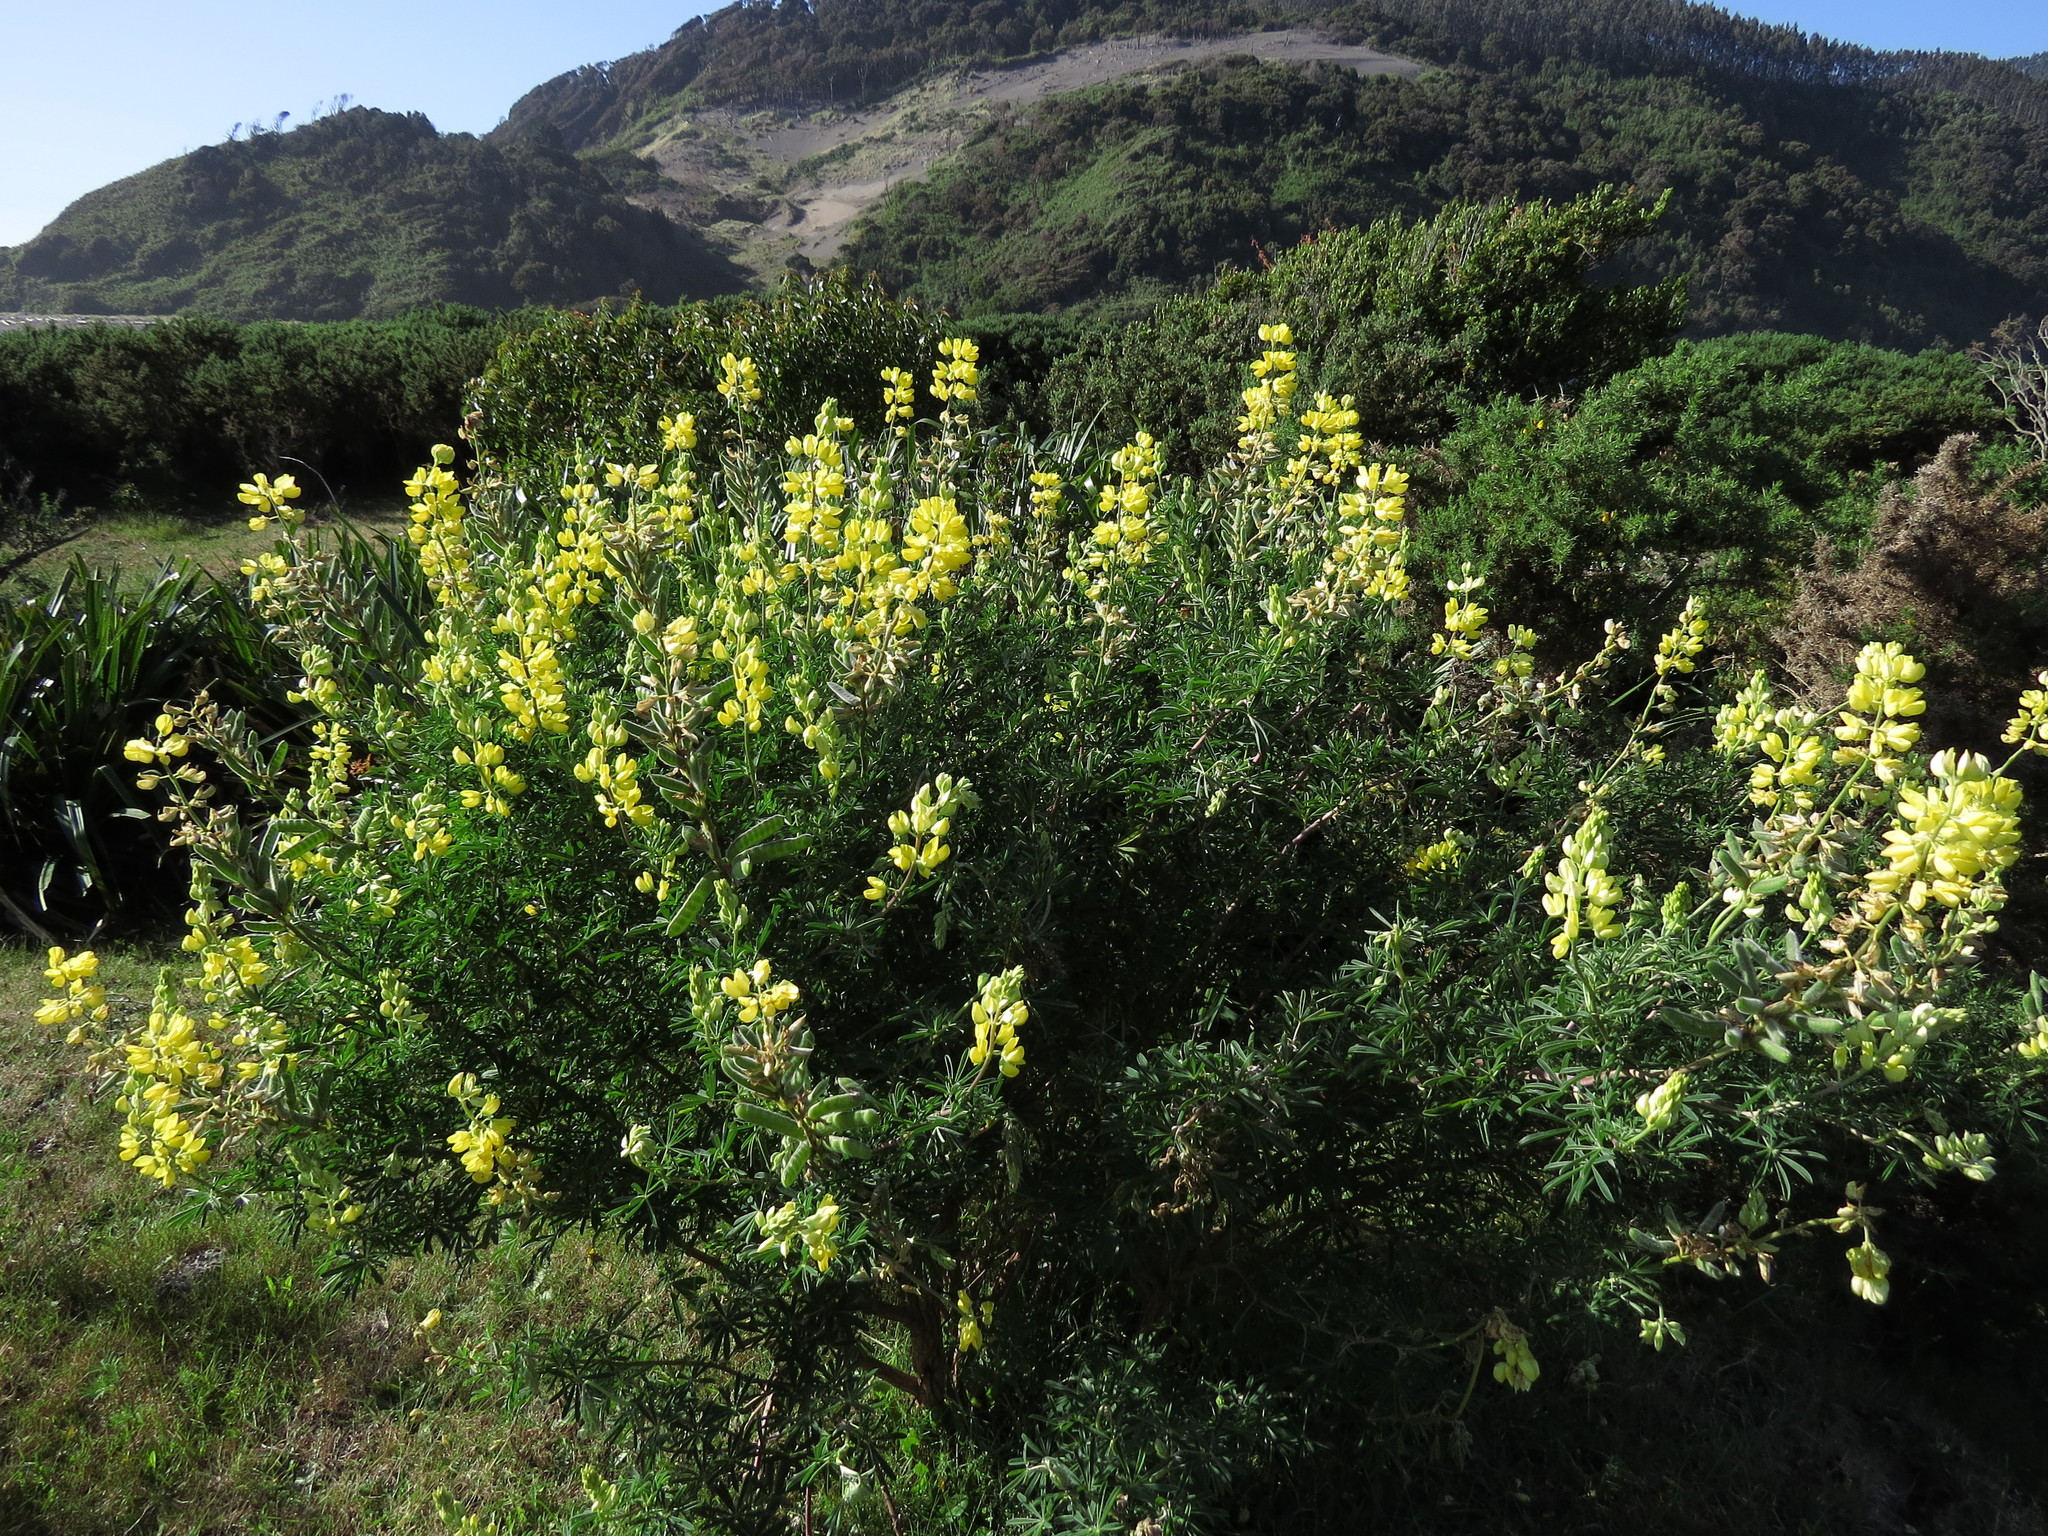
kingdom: Plantae
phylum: Tracheophyta
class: Magnoliopsida
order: Fabales
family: Fabaceae
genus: Lupinus
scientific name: Lupinus arboreus
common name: Yellow bush lupine
